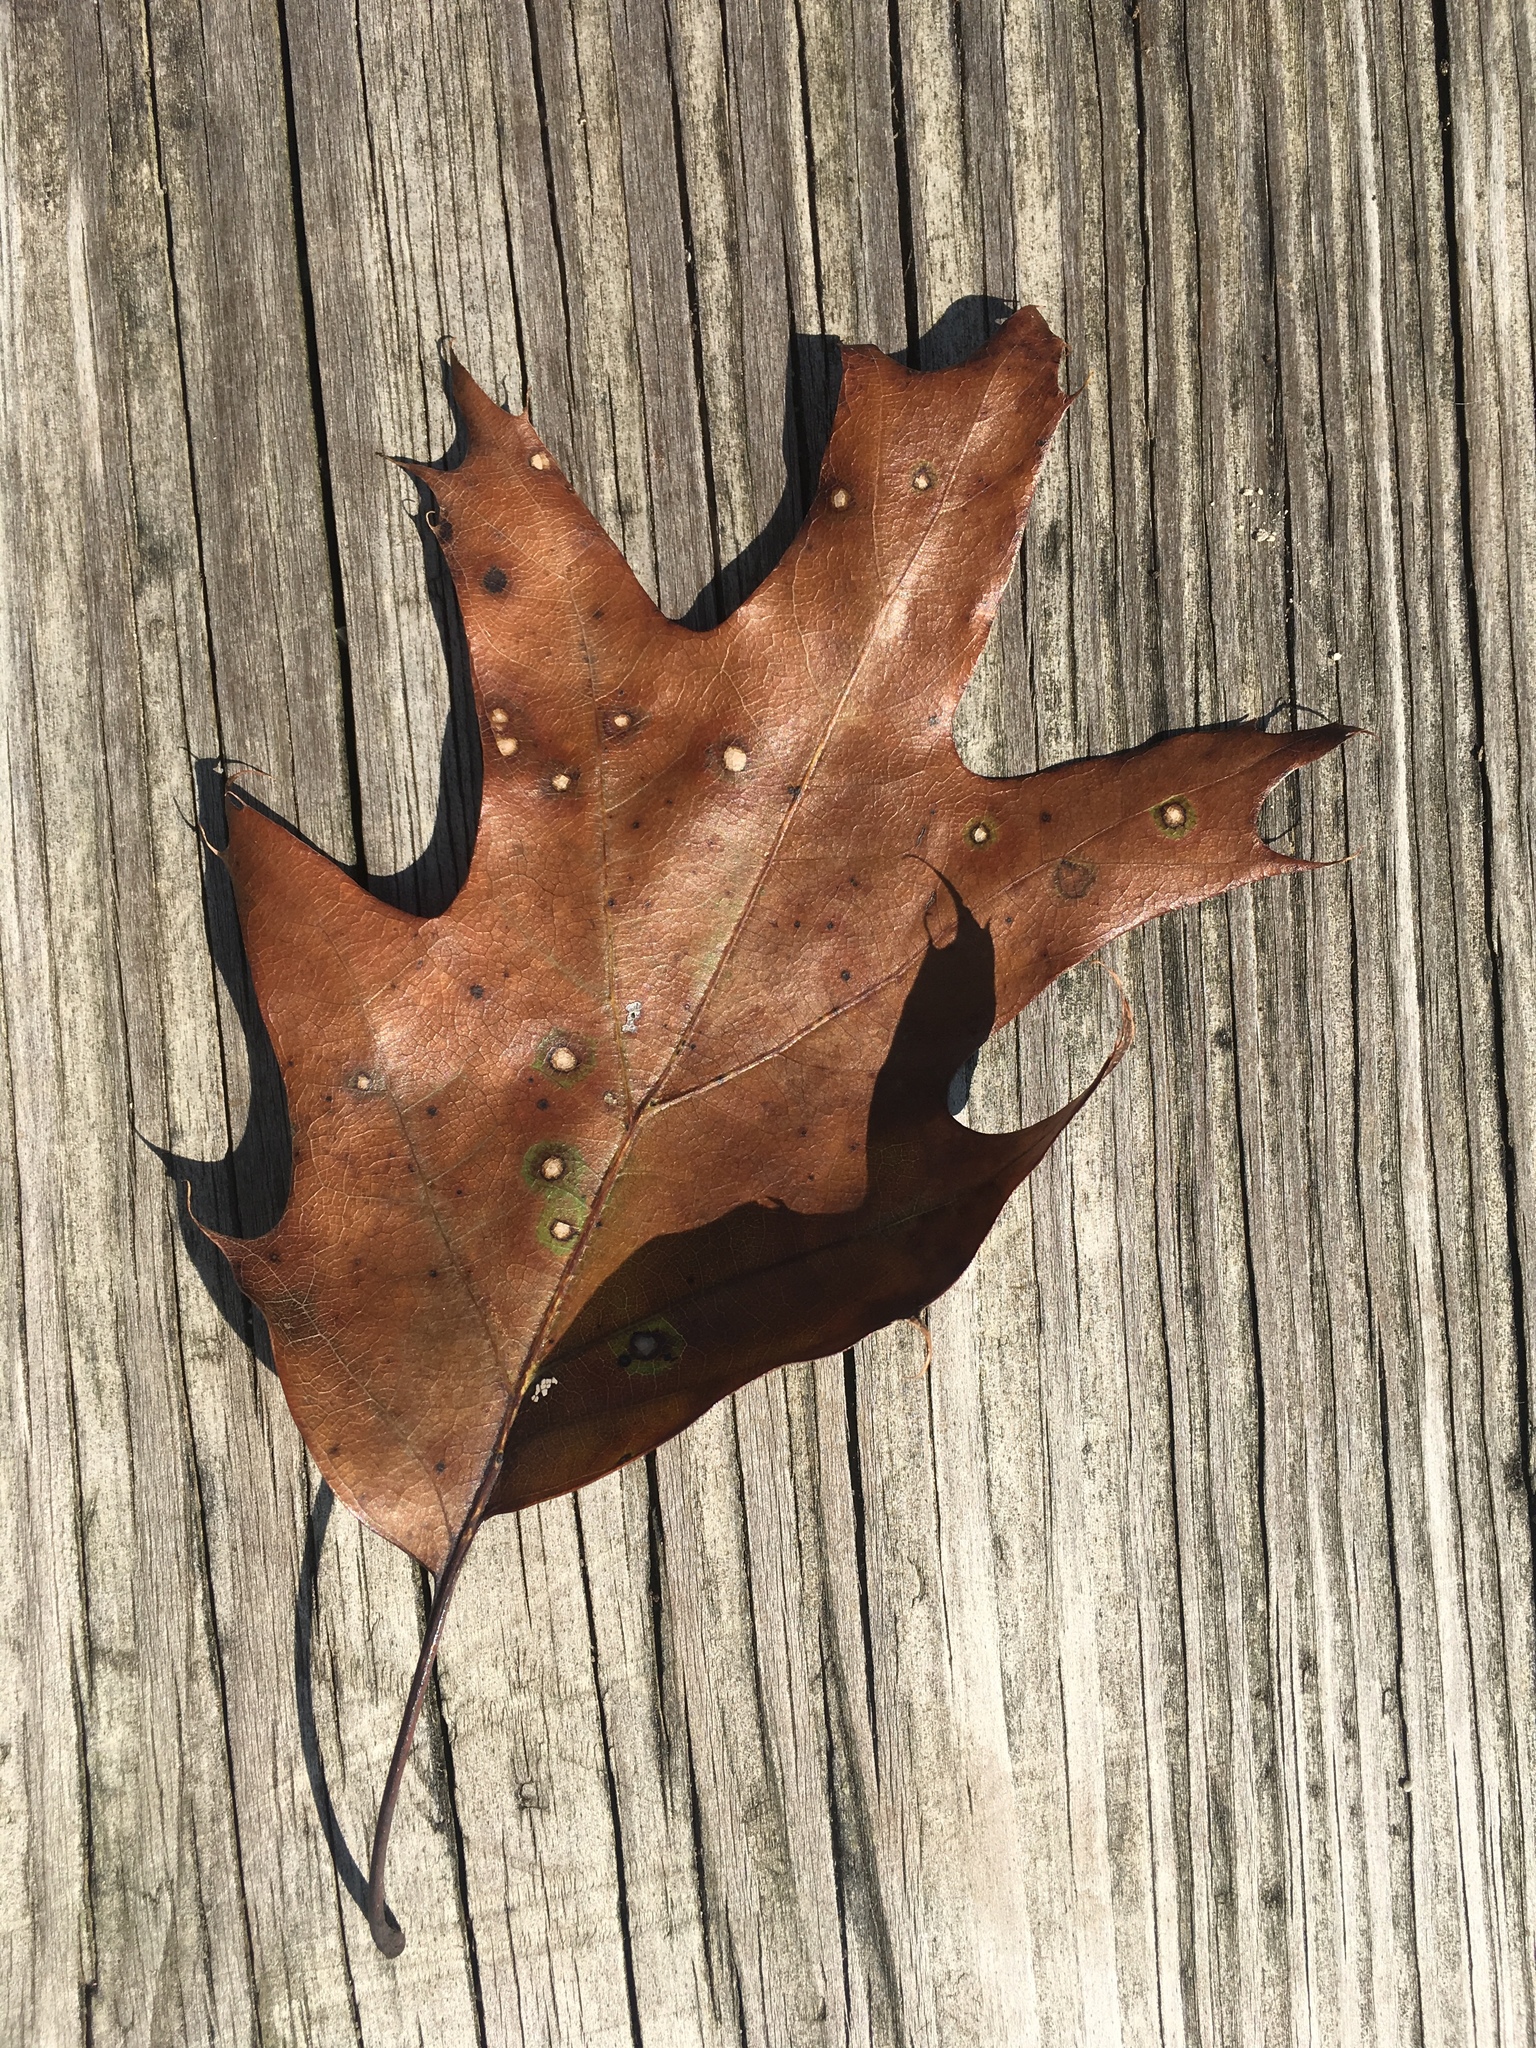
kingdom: Plantae
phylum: Tracheophyta
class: Magnoliopsida
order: Fagales
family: Fagaceae
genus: Quercus
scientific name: Quercus rubra
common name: Red oak
